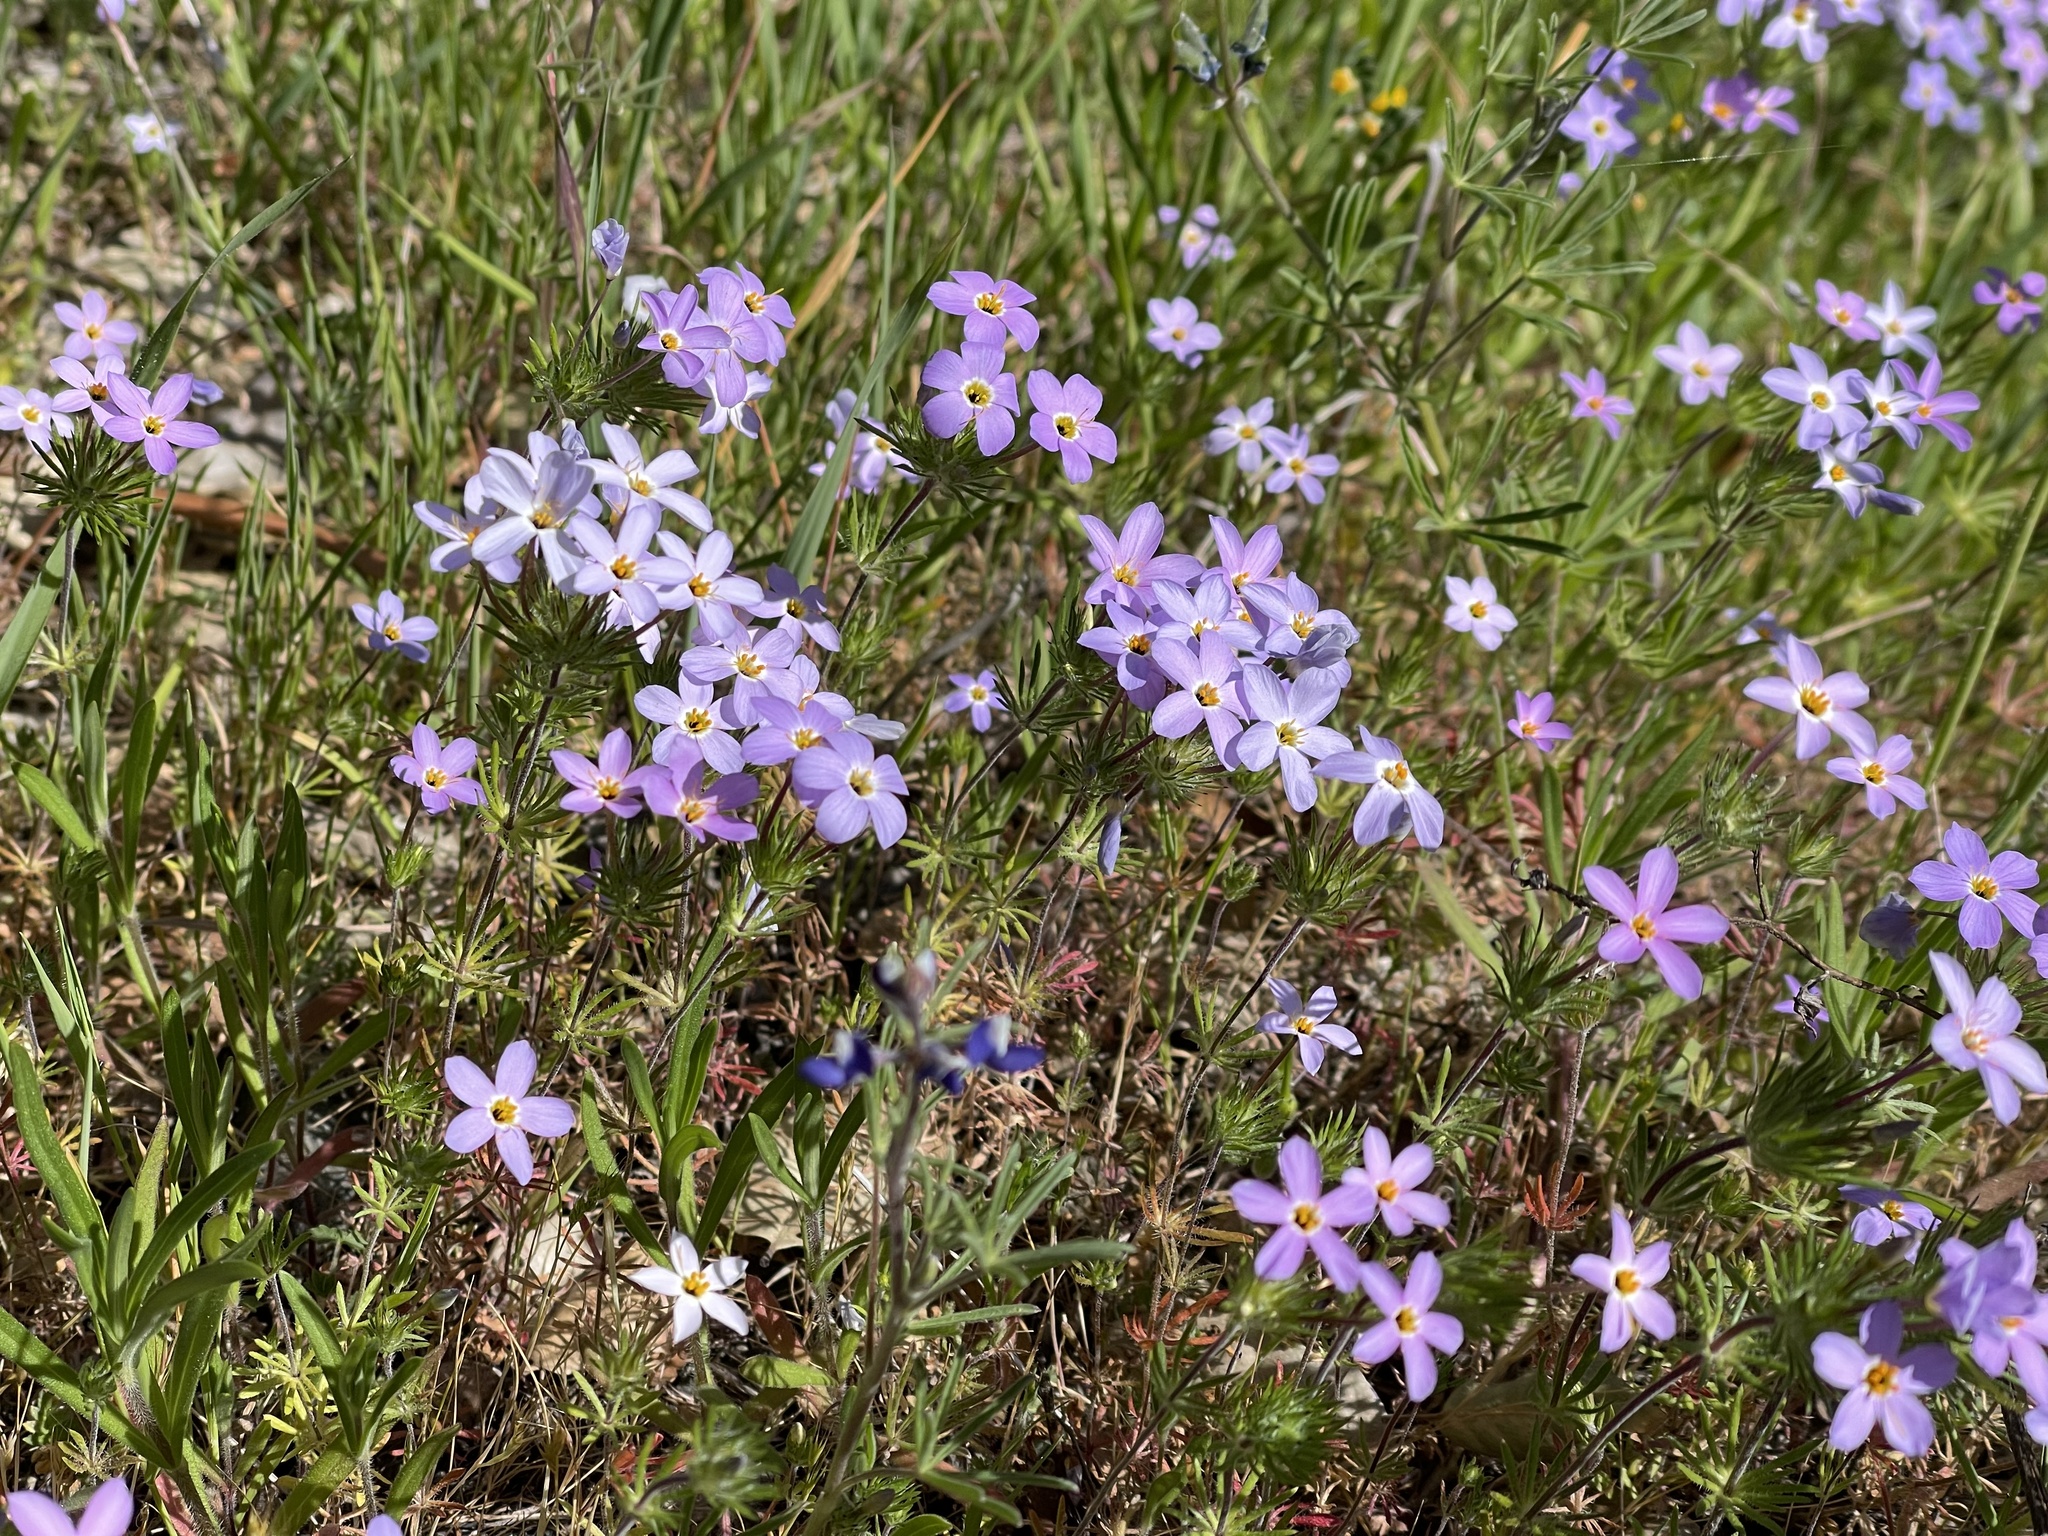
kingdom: Plantae
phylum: Tracheophyta
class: Magnoliopsida
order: Ericales
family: Polemoniaceae
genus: Leptosiphon
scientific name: Leptosiphon androsaceus
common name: False babystars
